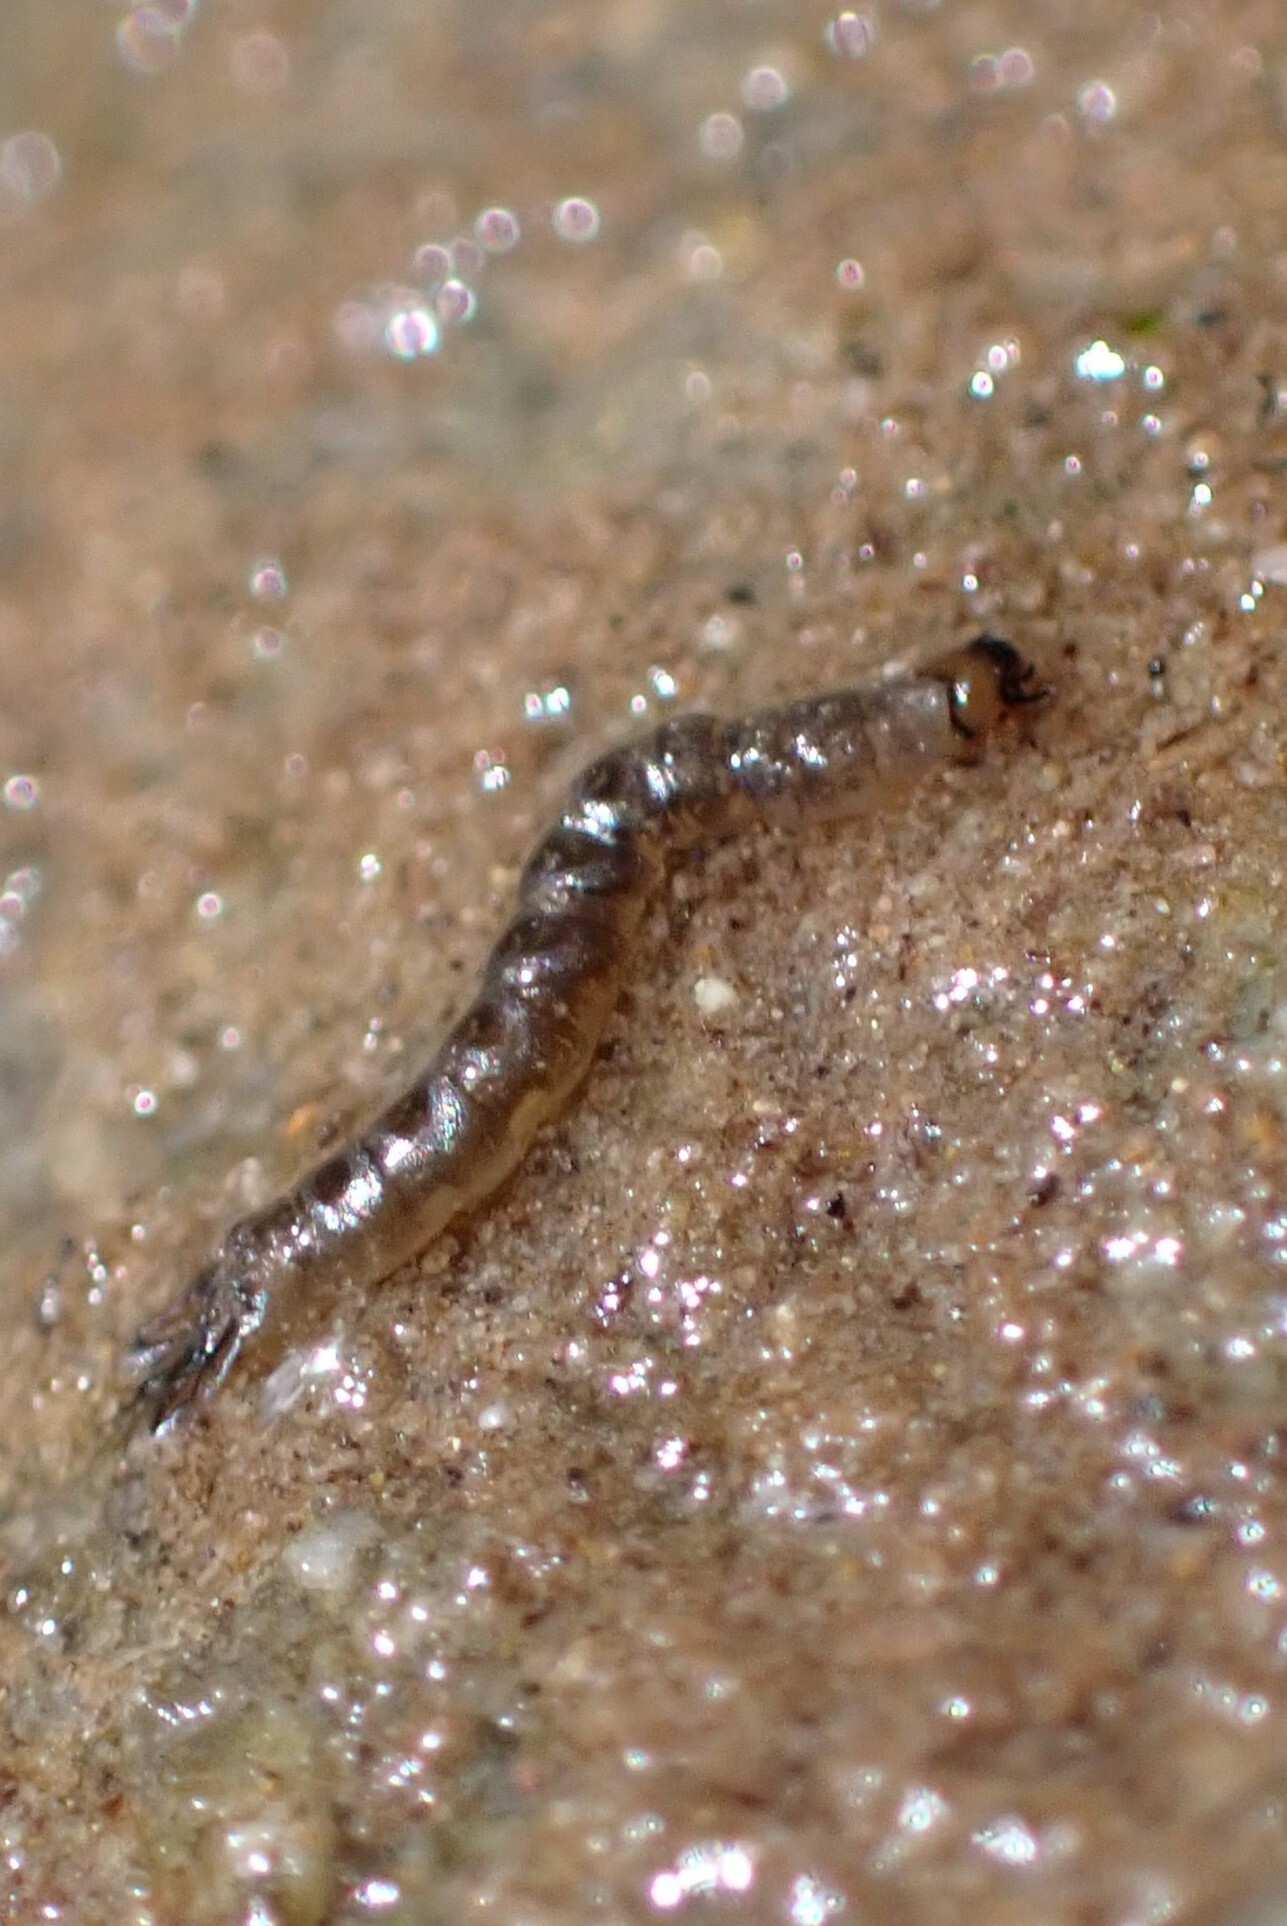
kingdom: Animalia
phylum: Arthropoda
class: Insecta
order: Diptera
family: Dixidae
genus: Dixa
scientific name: Dixa
